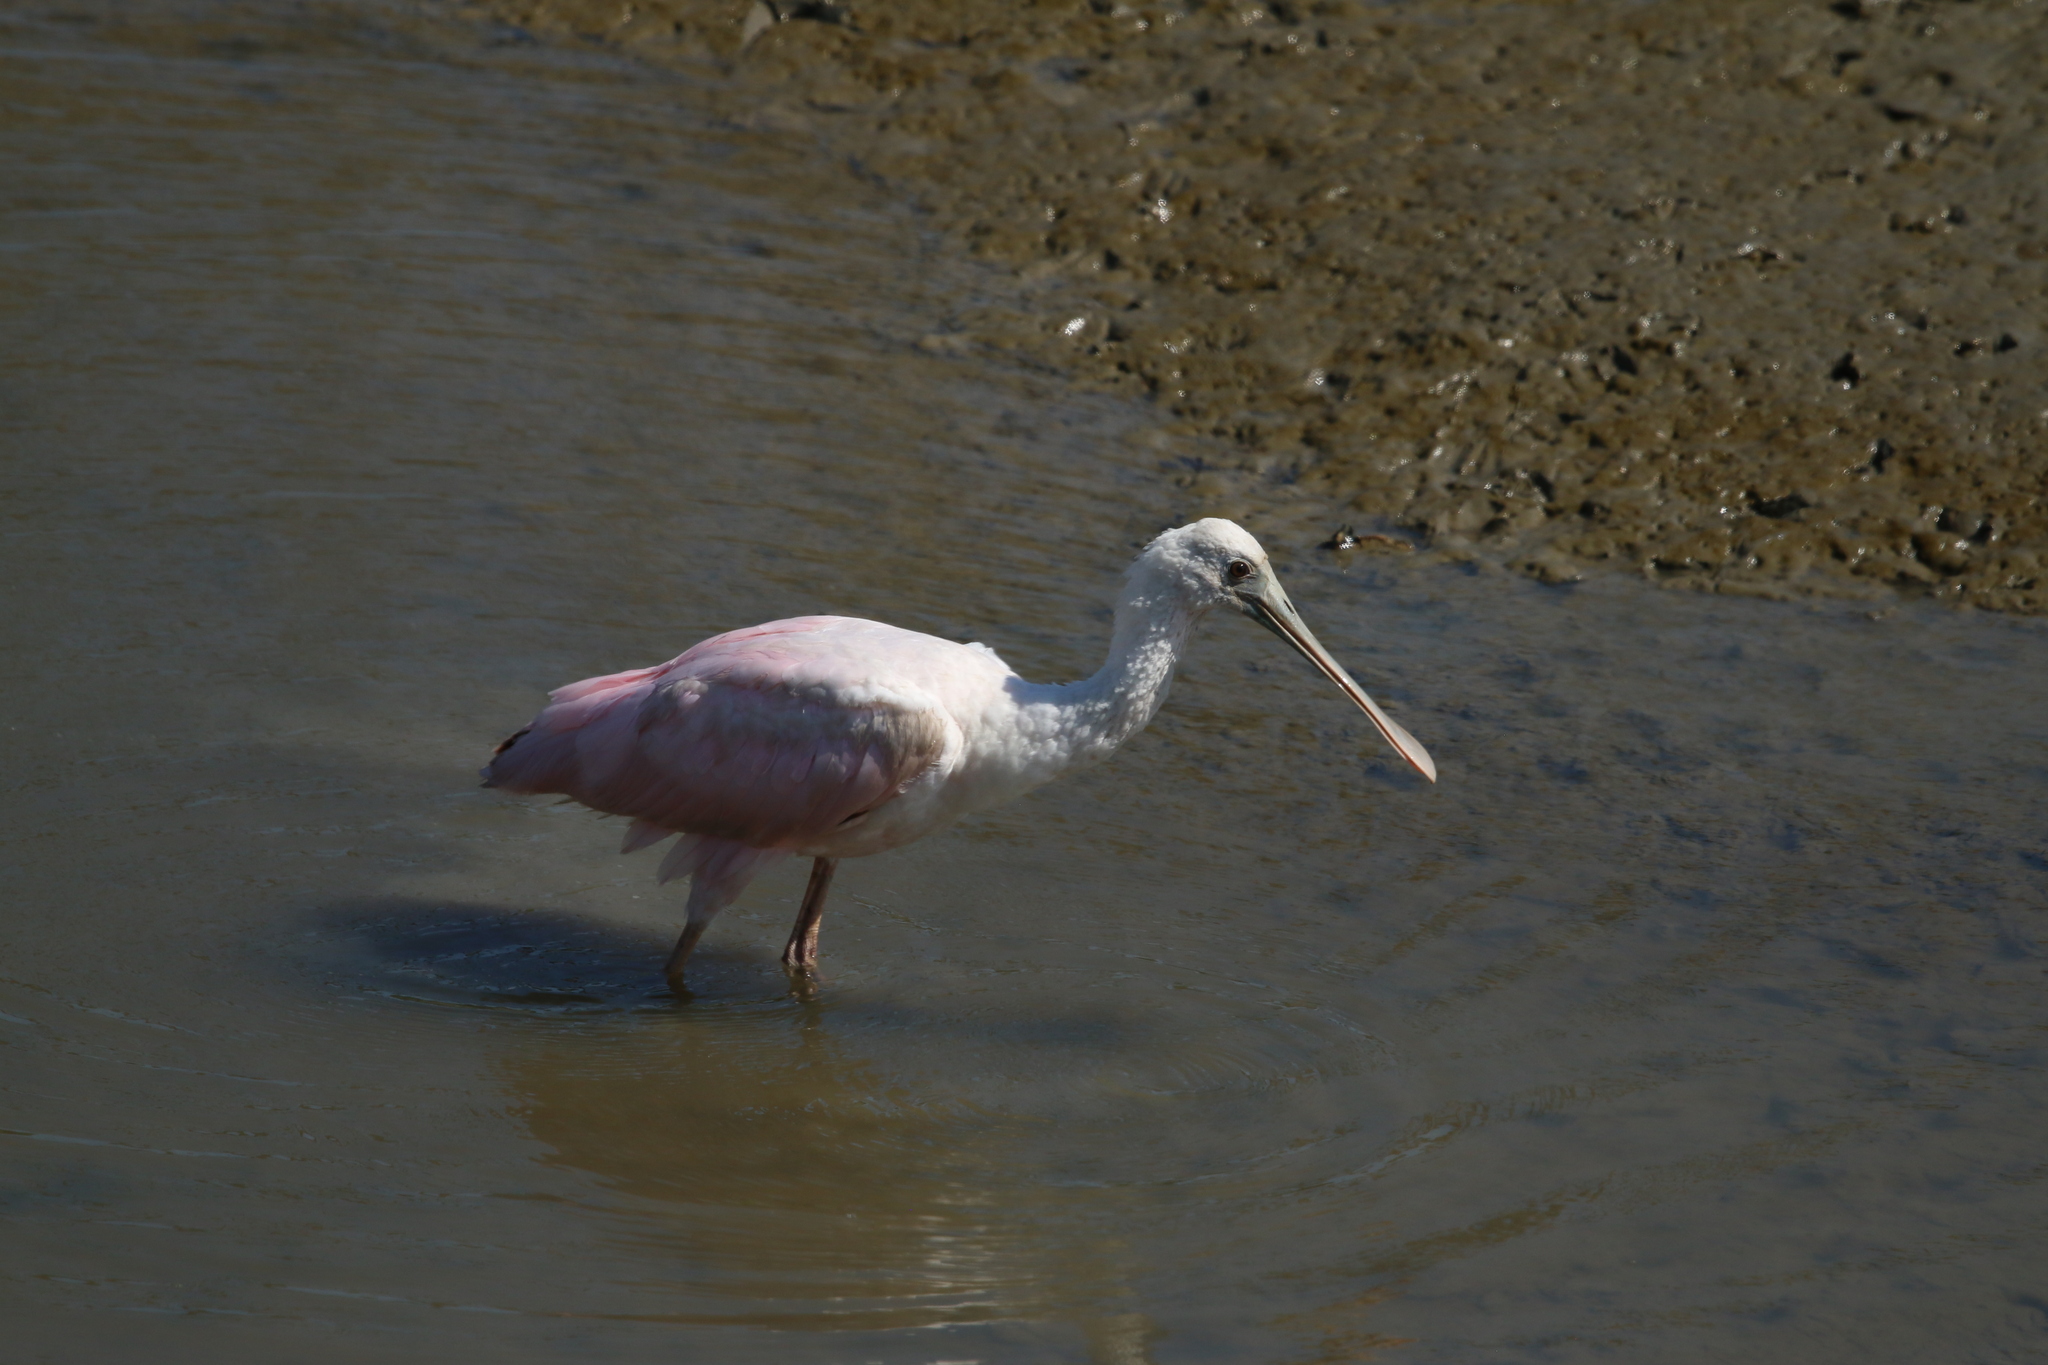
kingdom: Animalia
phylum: Chordata
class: Aves
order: Pelecaniformes
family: Threskiornithidae
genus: Platalea
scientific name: Platalea ajaja
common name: Roseate spoonbill
